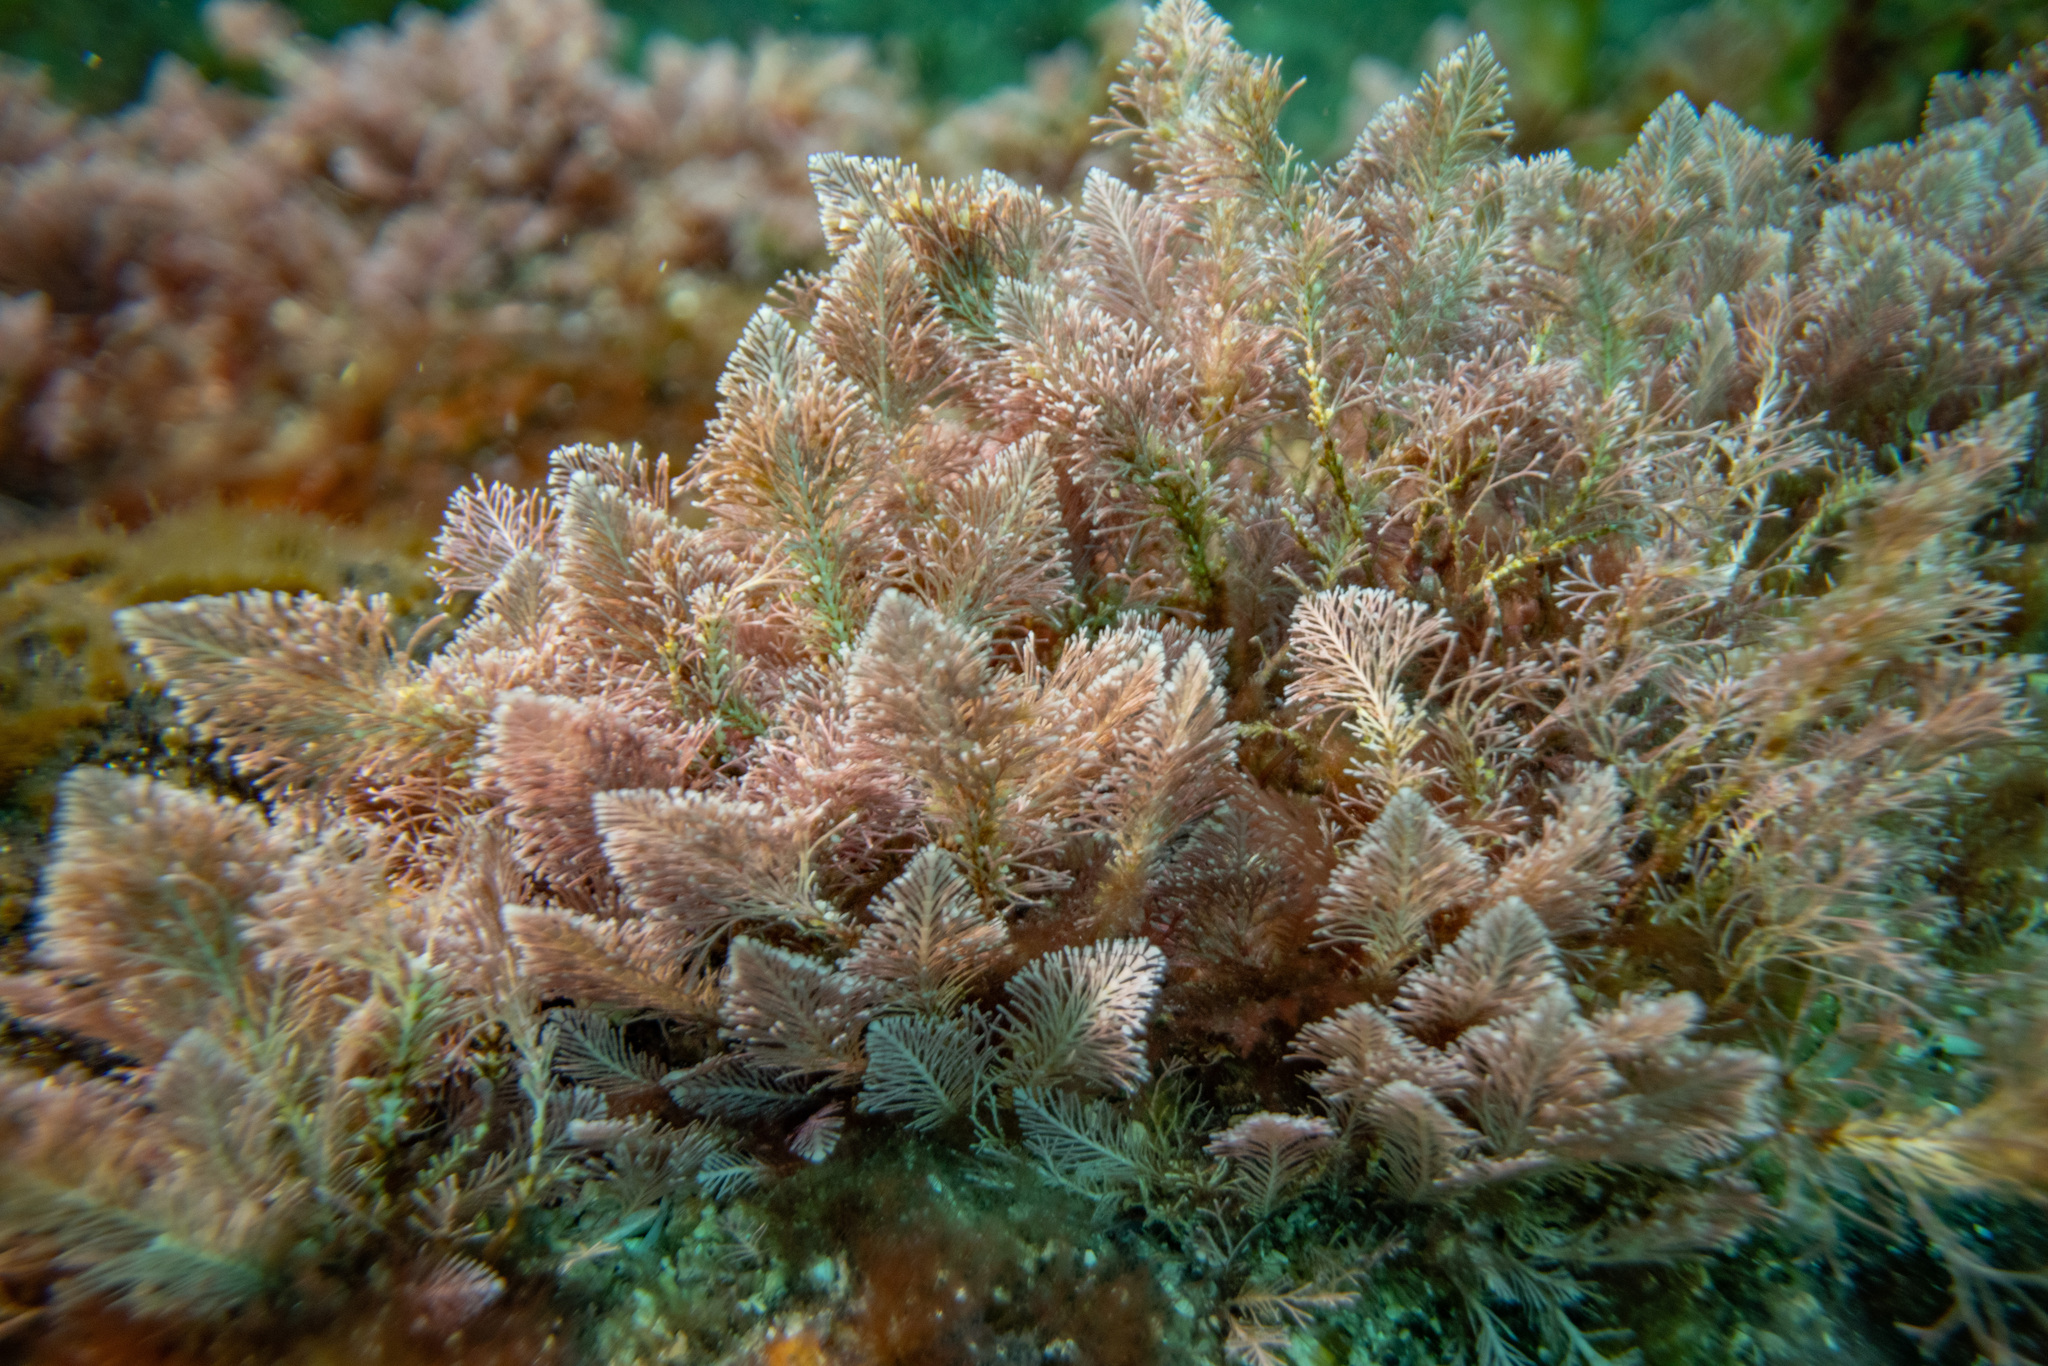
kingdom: Plantae
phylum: Rhodophyta
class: Florideophyceae
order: Corallinales
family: Corallinaceae
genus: Jania
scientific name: Jania rosea
